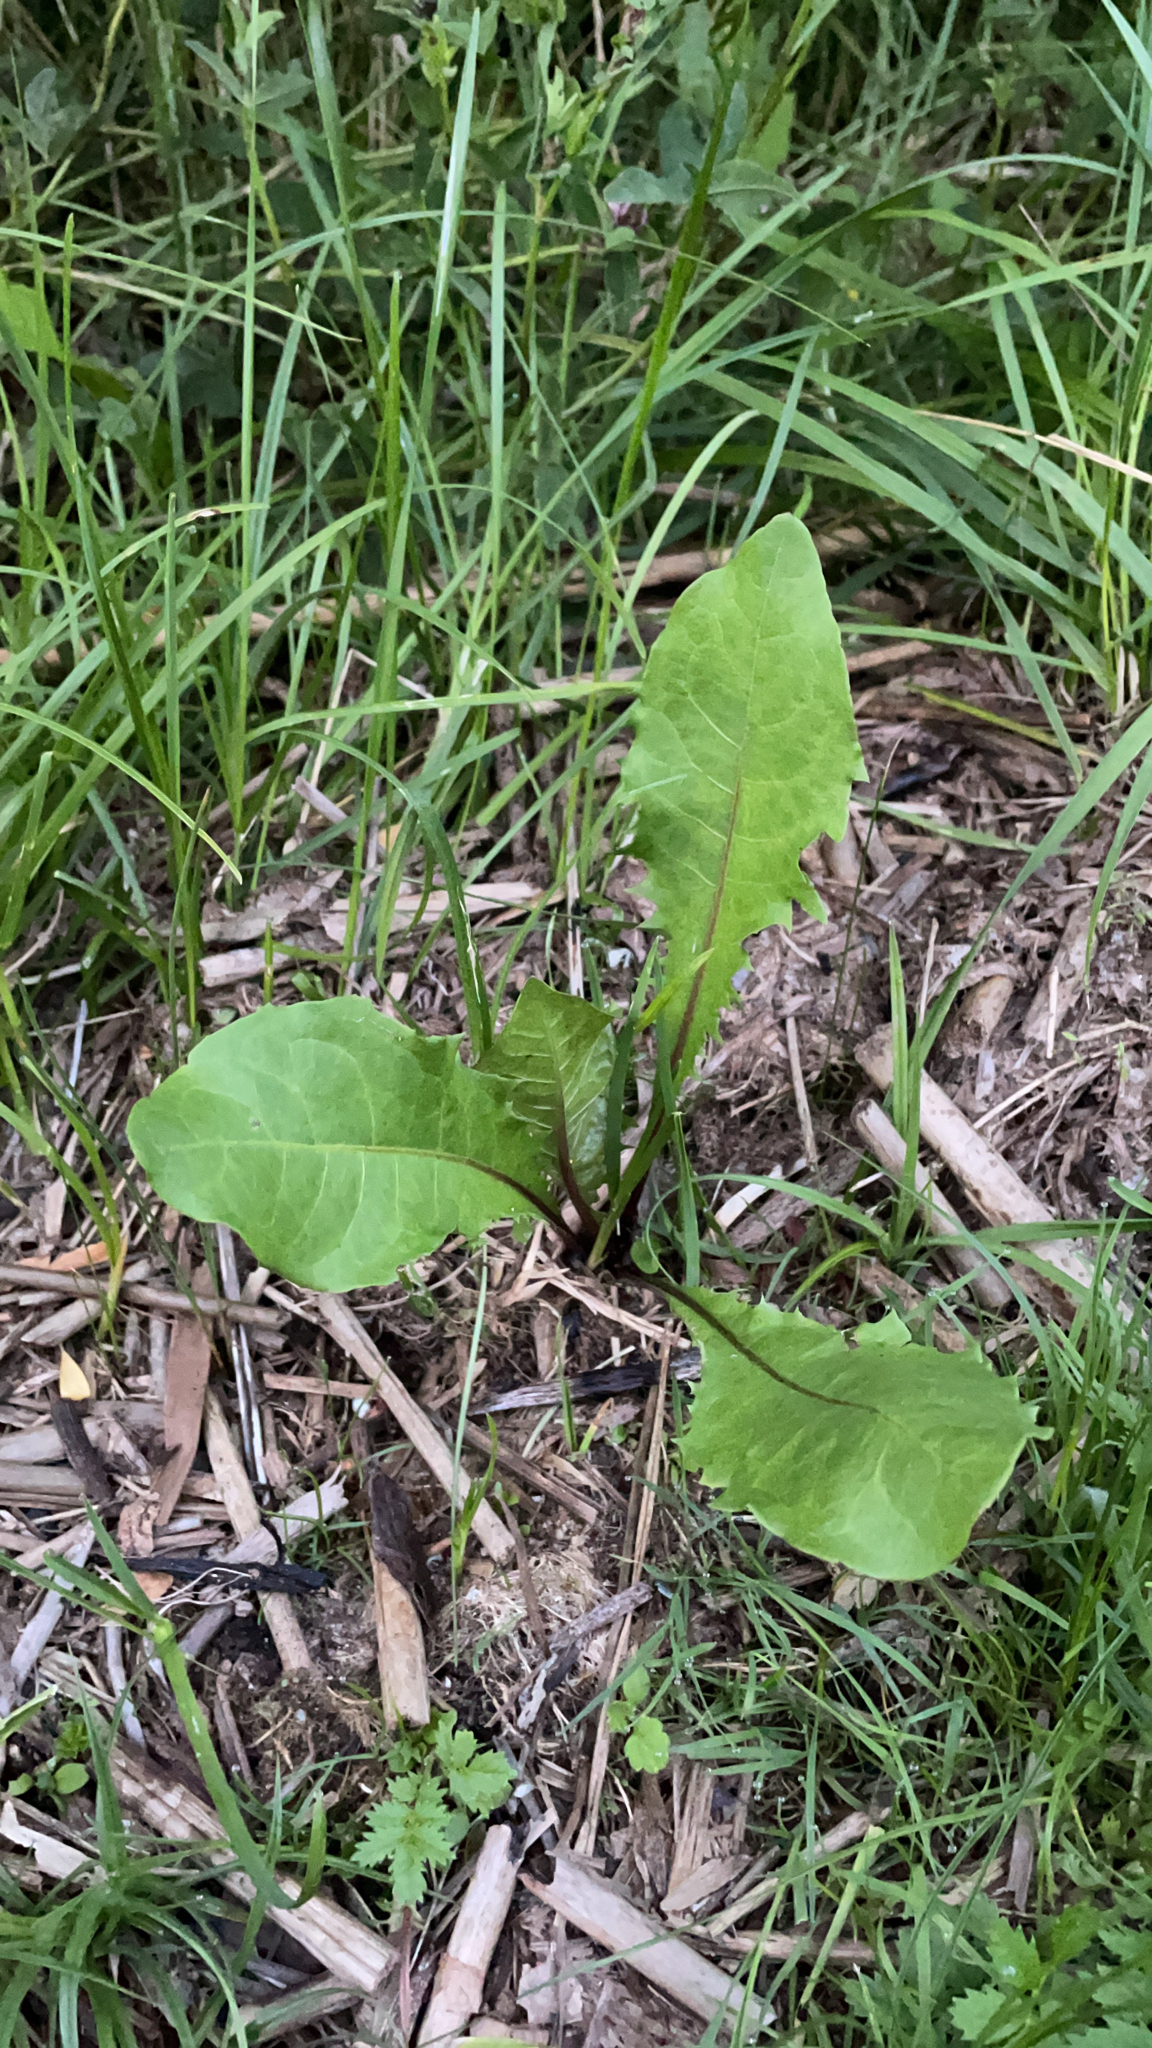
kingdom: Plantae
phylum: Tracheophyta
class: Magnoliopsida
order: Asterales
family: Asteraceae
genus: Taraxacum
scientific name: Taraxacum officinale
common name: Common dandelion
